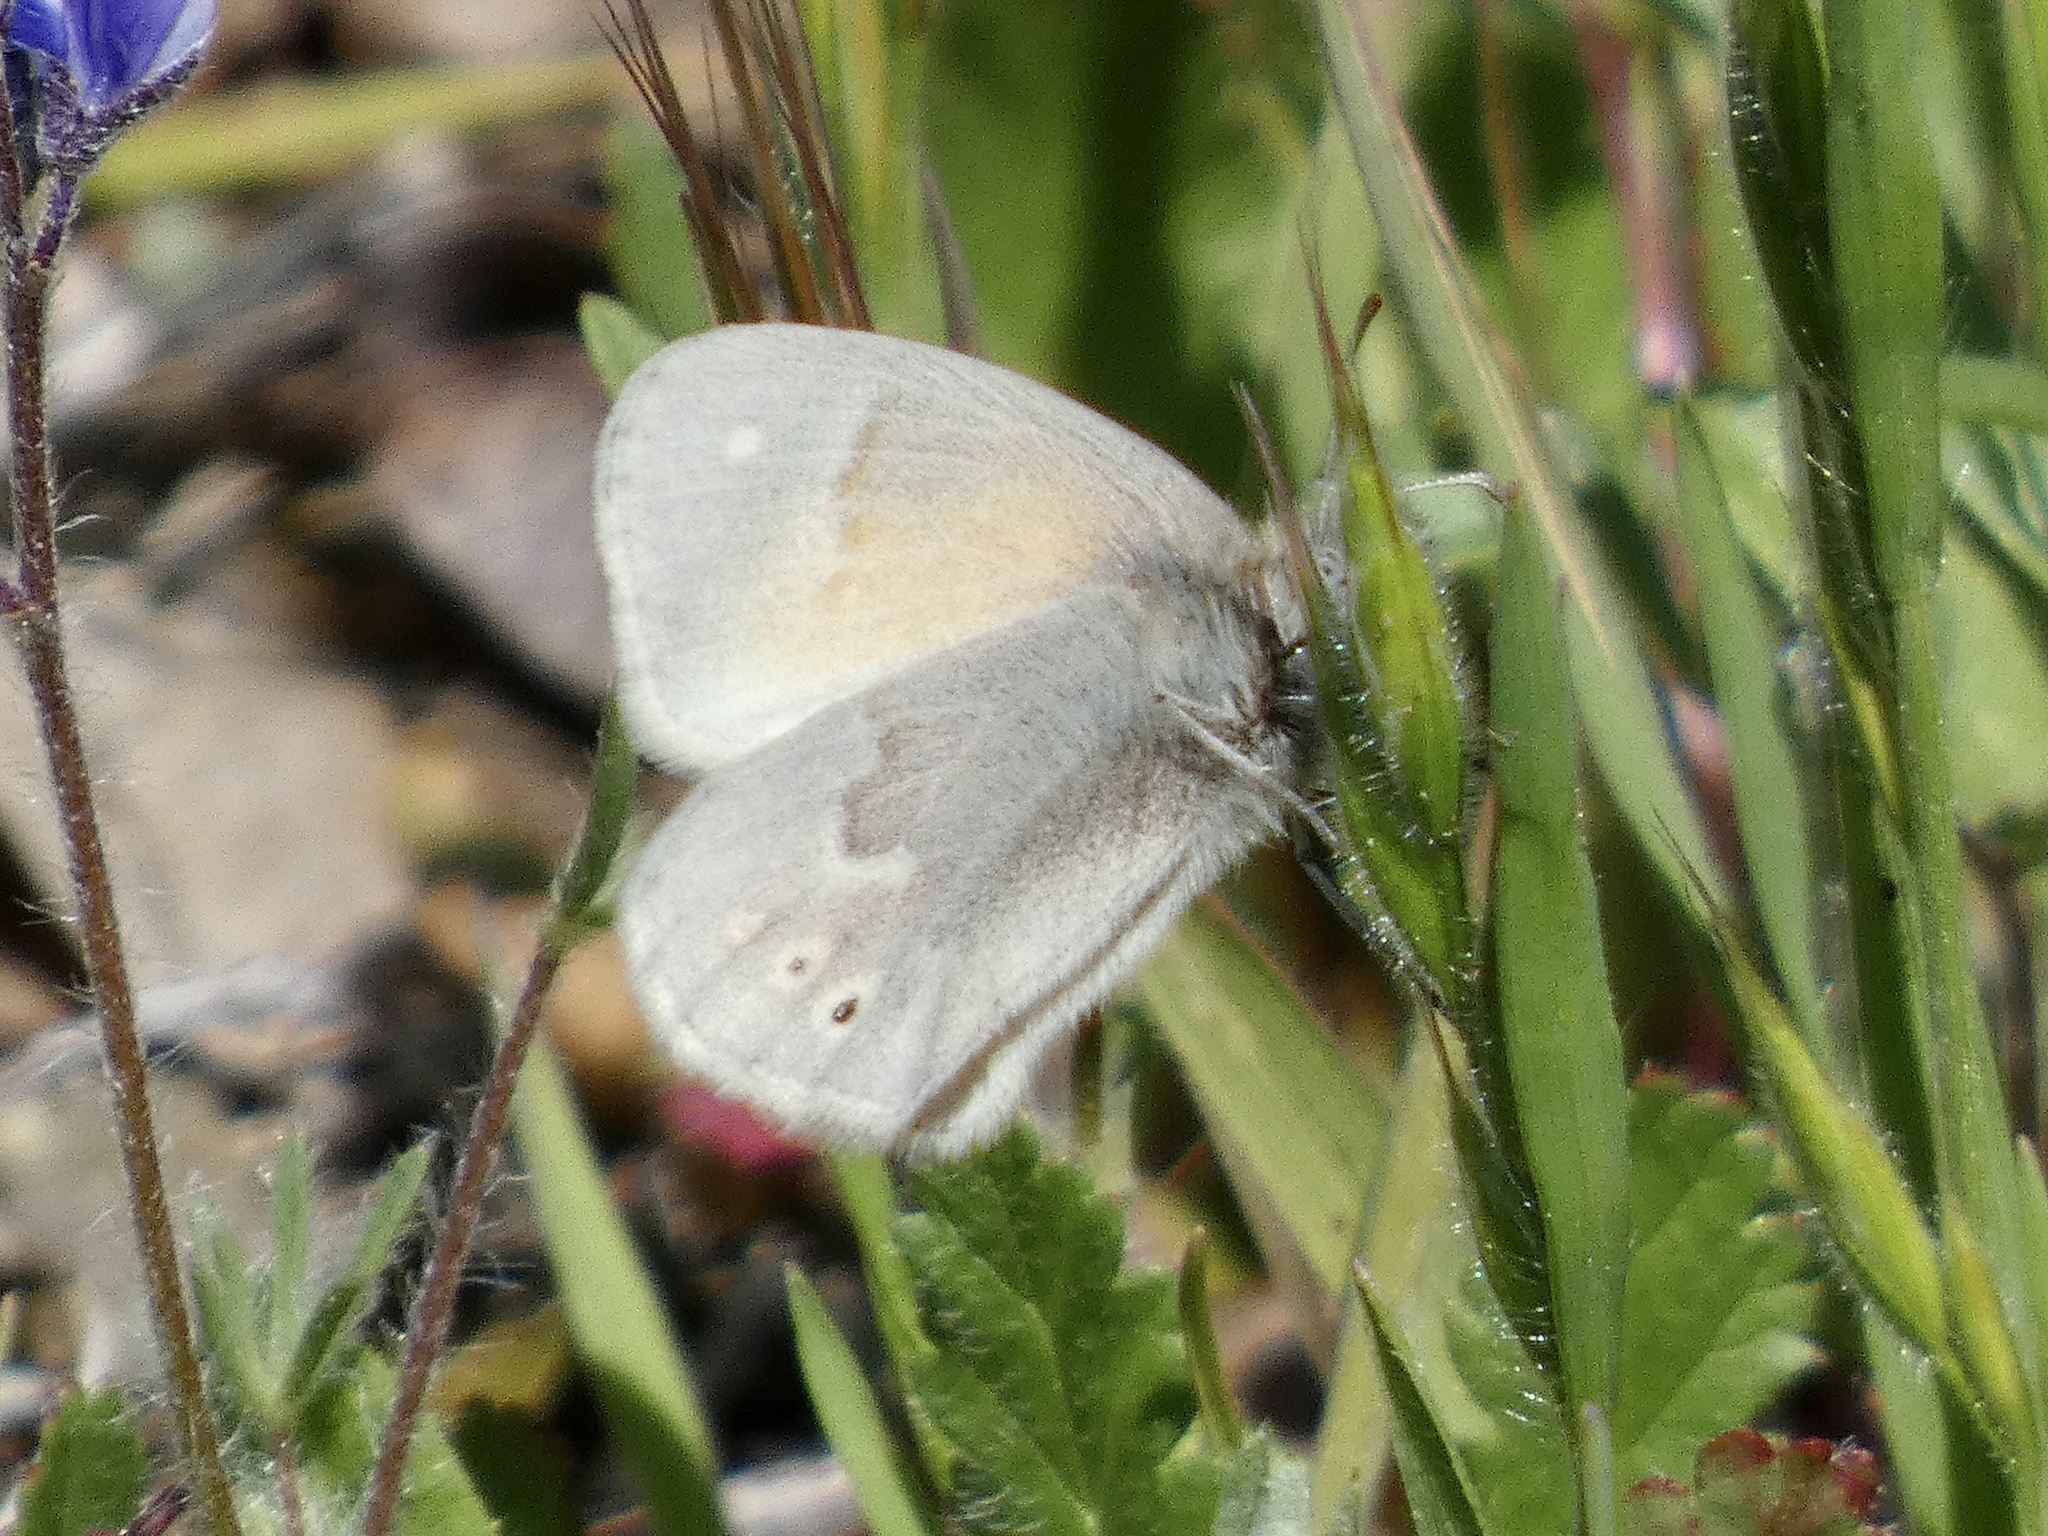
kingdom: Animalia
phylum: Arthropoda
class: Insecta
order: Lepidoptera
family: Nymphalidae
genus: Coenonympha
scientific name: Coenonympha california
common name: Common ringlet
